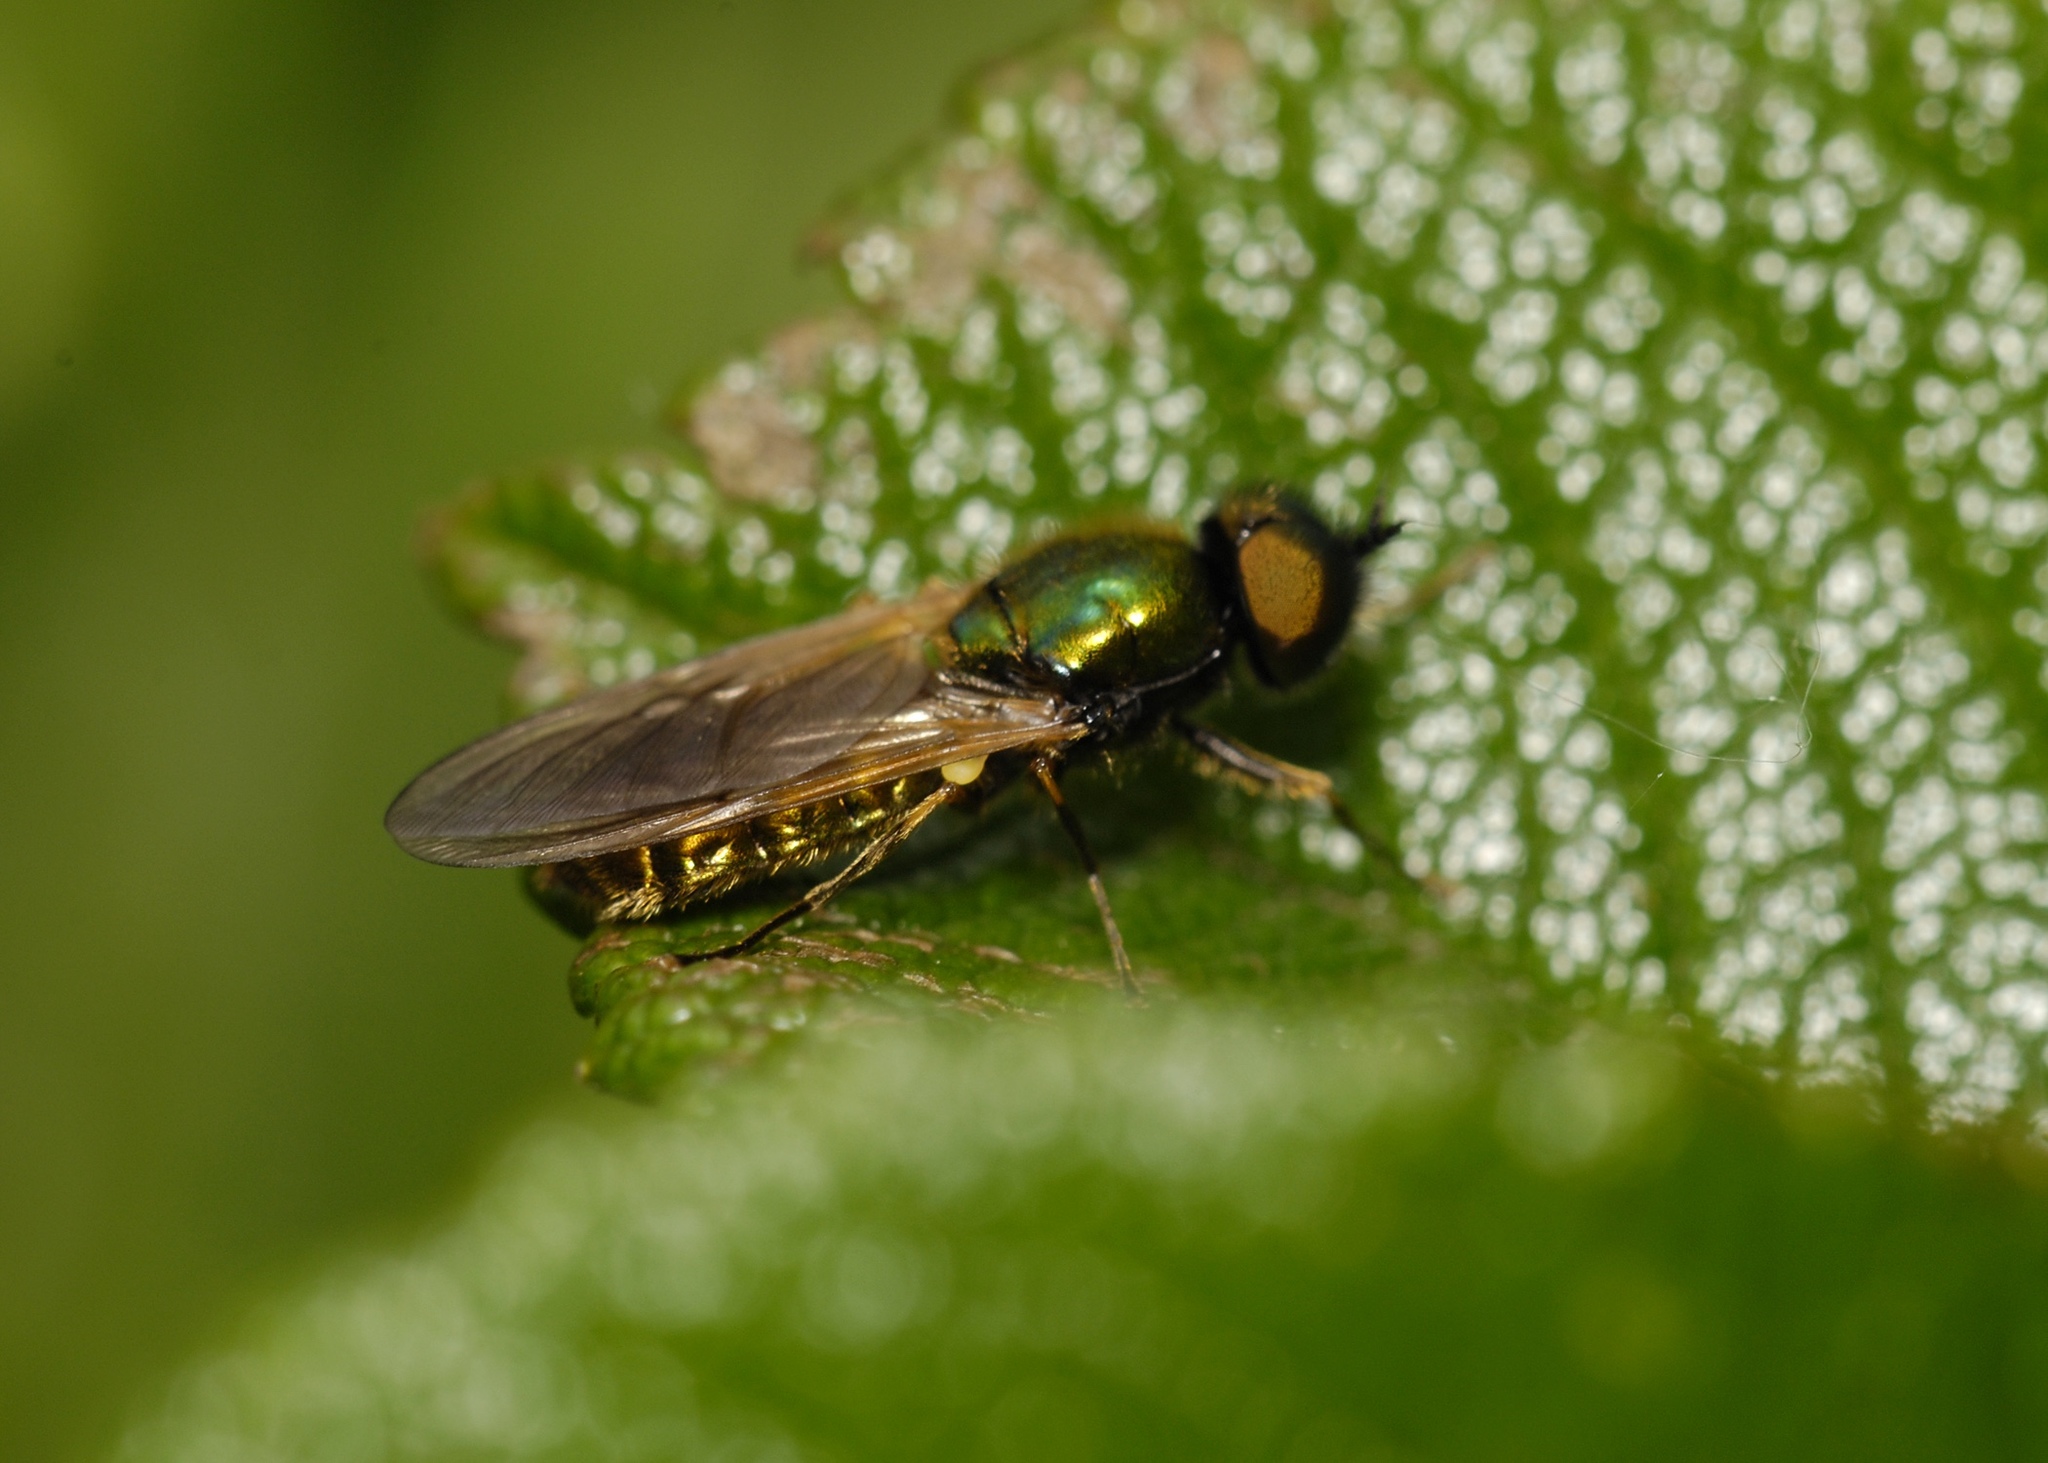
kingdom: Animalia
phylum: Arthropoda
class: Insecta
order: Diptera
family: Stratiomyidae
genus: Chloromyia
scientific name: Chloromyia formosa
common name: Soldier fly
